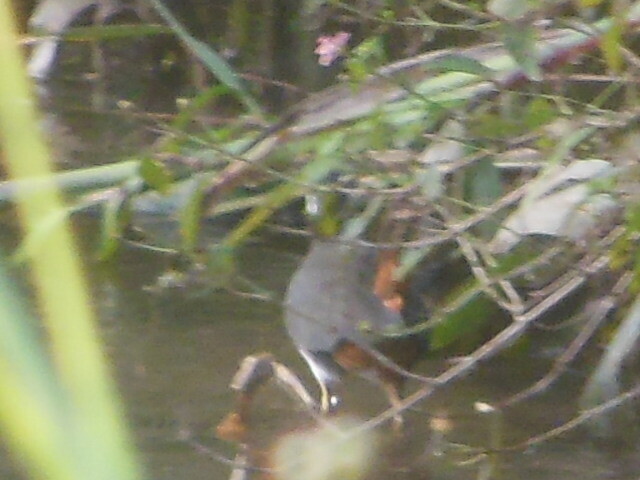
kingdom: Animalia
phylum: Chordata
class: Aves
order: Gruiformes
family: Rallidae
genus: Amaurornis
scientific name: Amaurornis phoenicurus
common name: White-breasted waterhen
